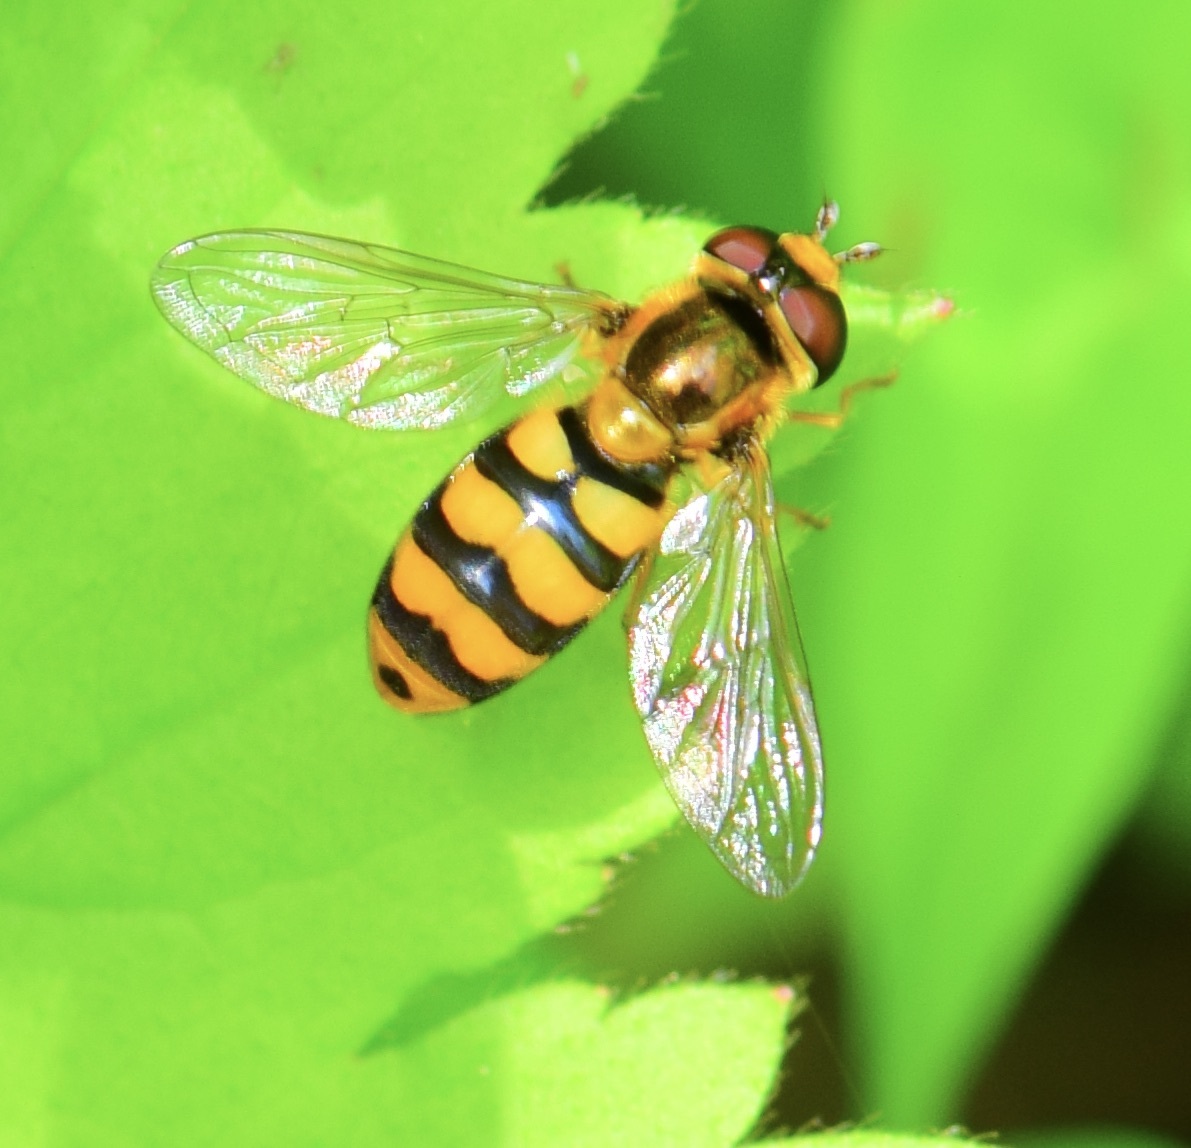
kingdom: Animalia
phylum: Arthropoda
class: Insecta
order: Diptera
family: Syrphidae
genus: Eupeodes
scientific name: Eupeodes latifasciatus
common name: Variable aphideater
